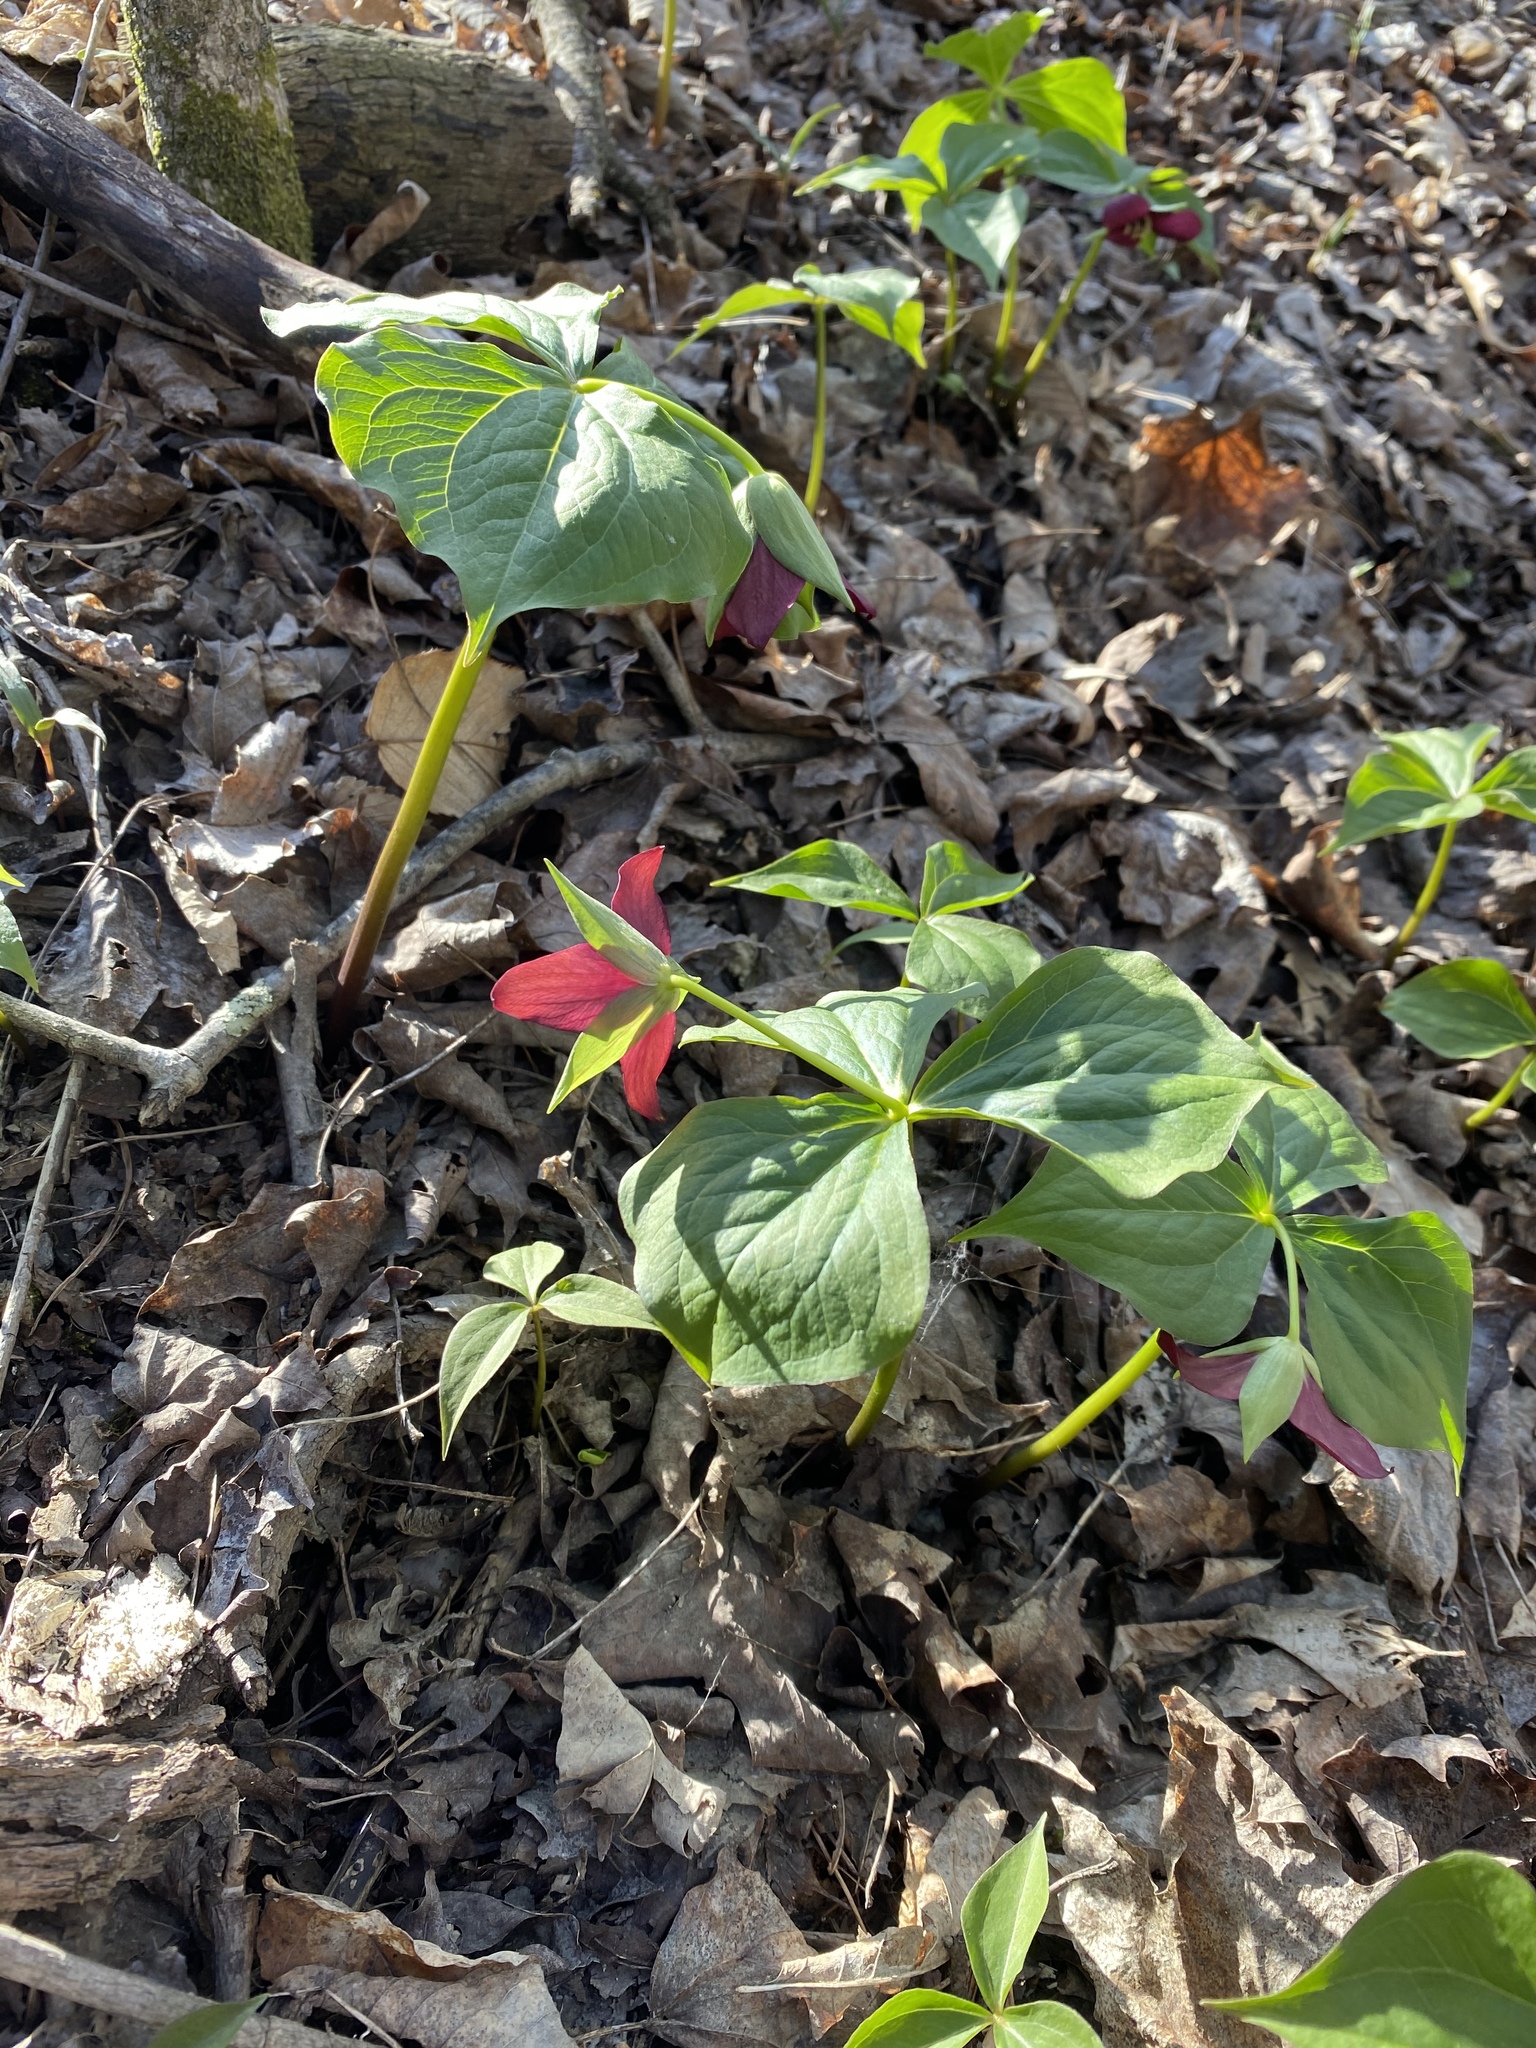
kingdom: Plantae
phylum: Tracheophyta
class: Liliopsida
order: Liliales
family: Melanthiaceae
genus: Trillium
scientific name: Trillium erectum
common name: Purple trillium
